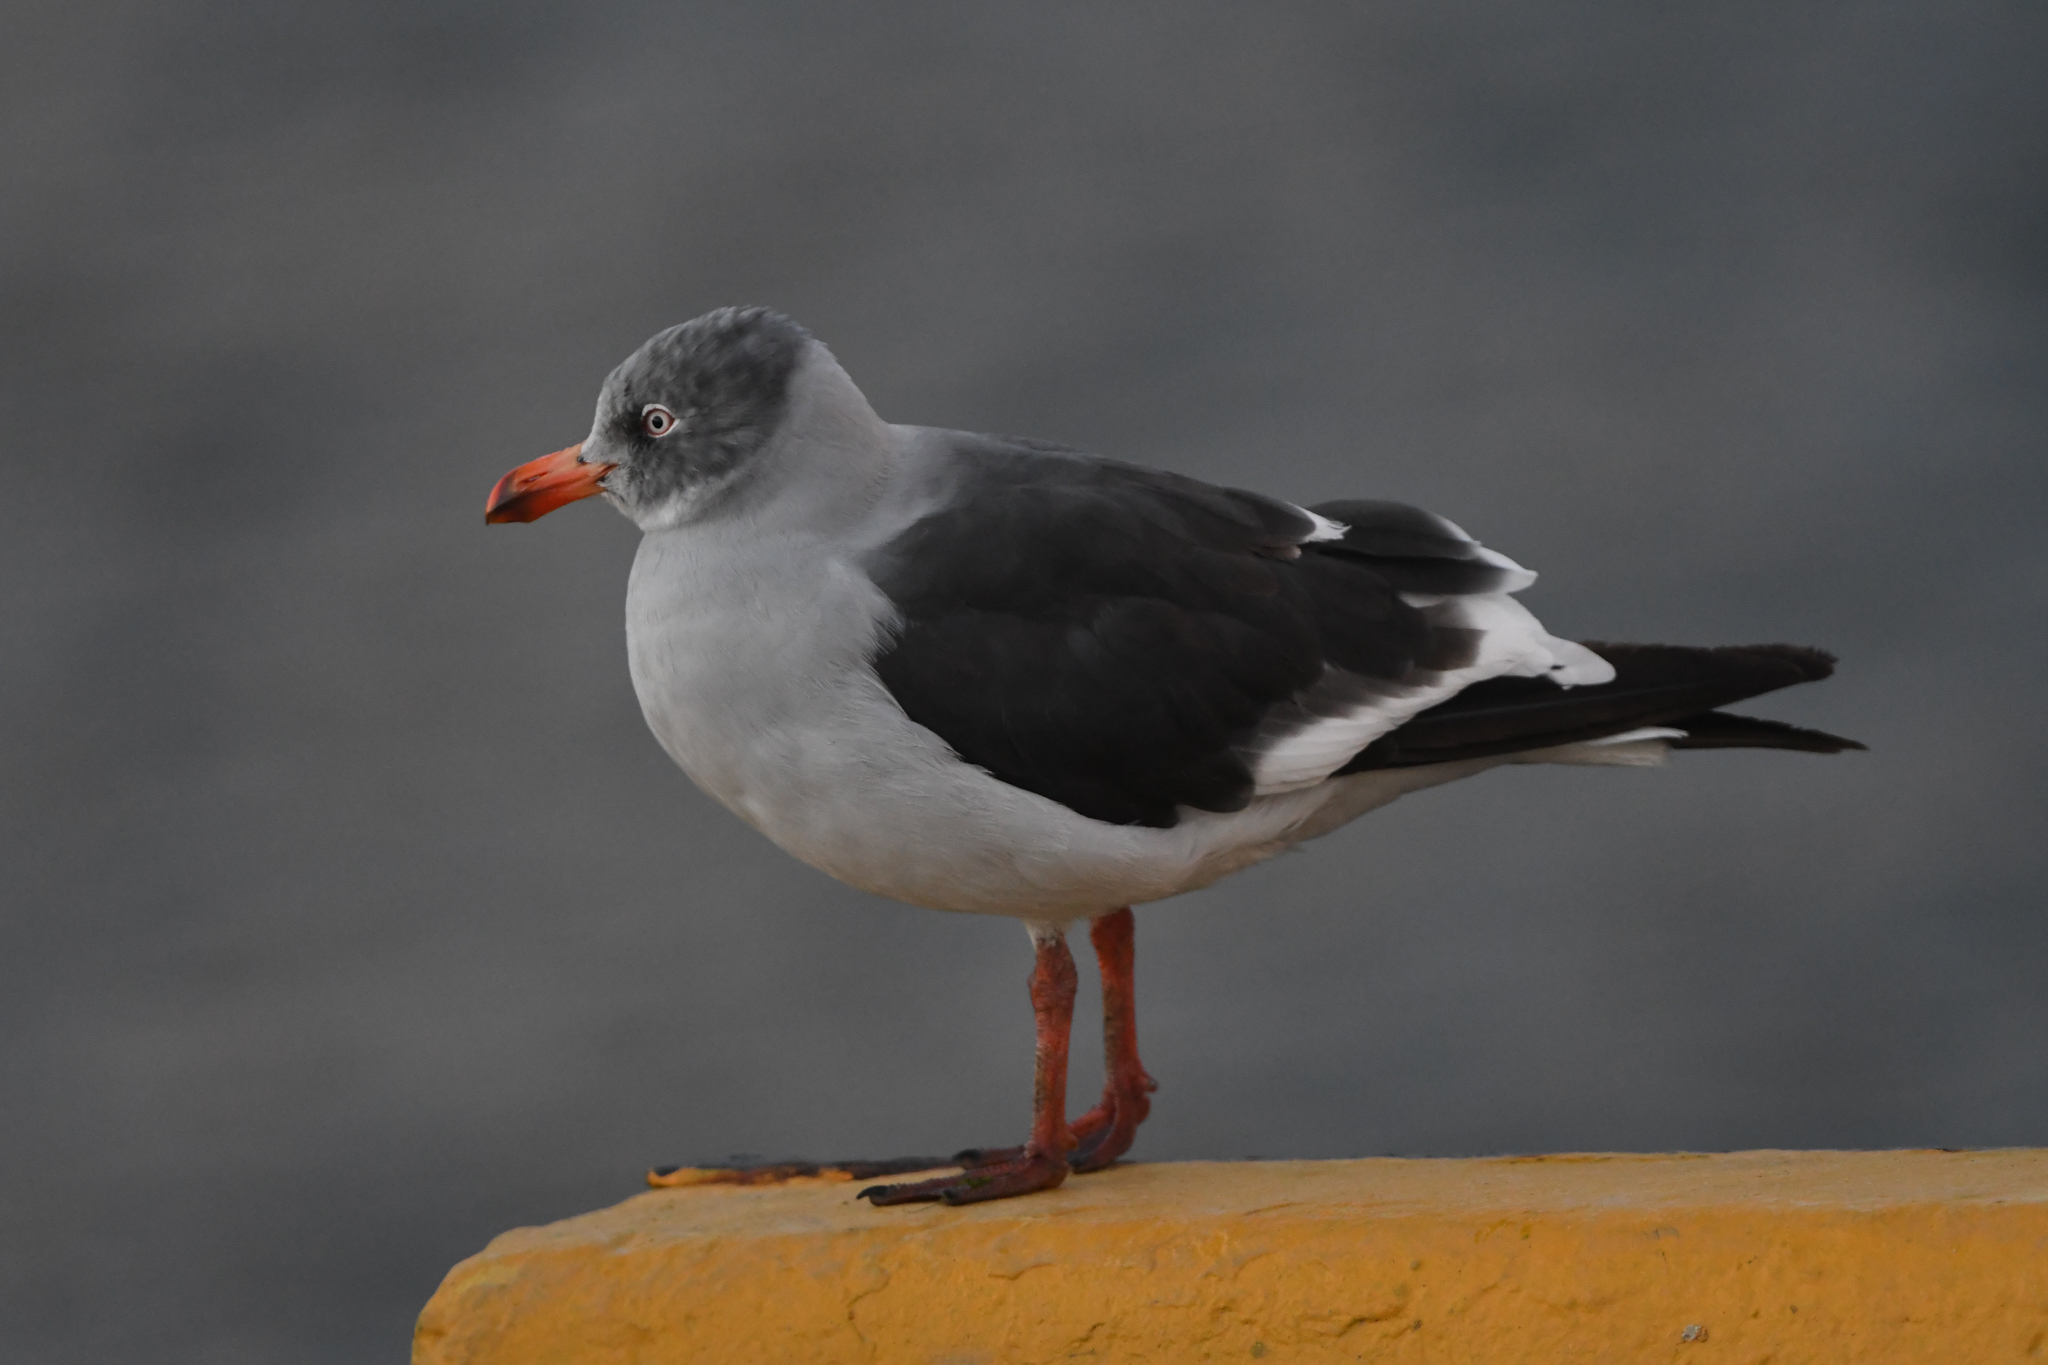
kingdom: Animalia
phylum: Chordata
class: Aves
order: Charadriiformes
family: Laridae
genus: Leucophaeus
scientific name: Leucophaeus scoresbii
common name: Dolphin gull
